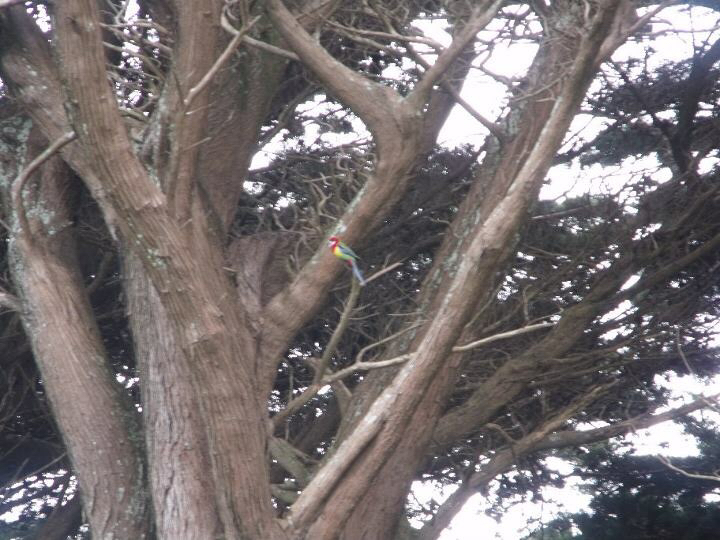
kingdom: Animalia
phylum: Chordata
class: Aves
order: Psittaciformes
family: Psittacidae
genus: Platycercus
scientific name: Platycercus eximius
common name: Eastern rosella
